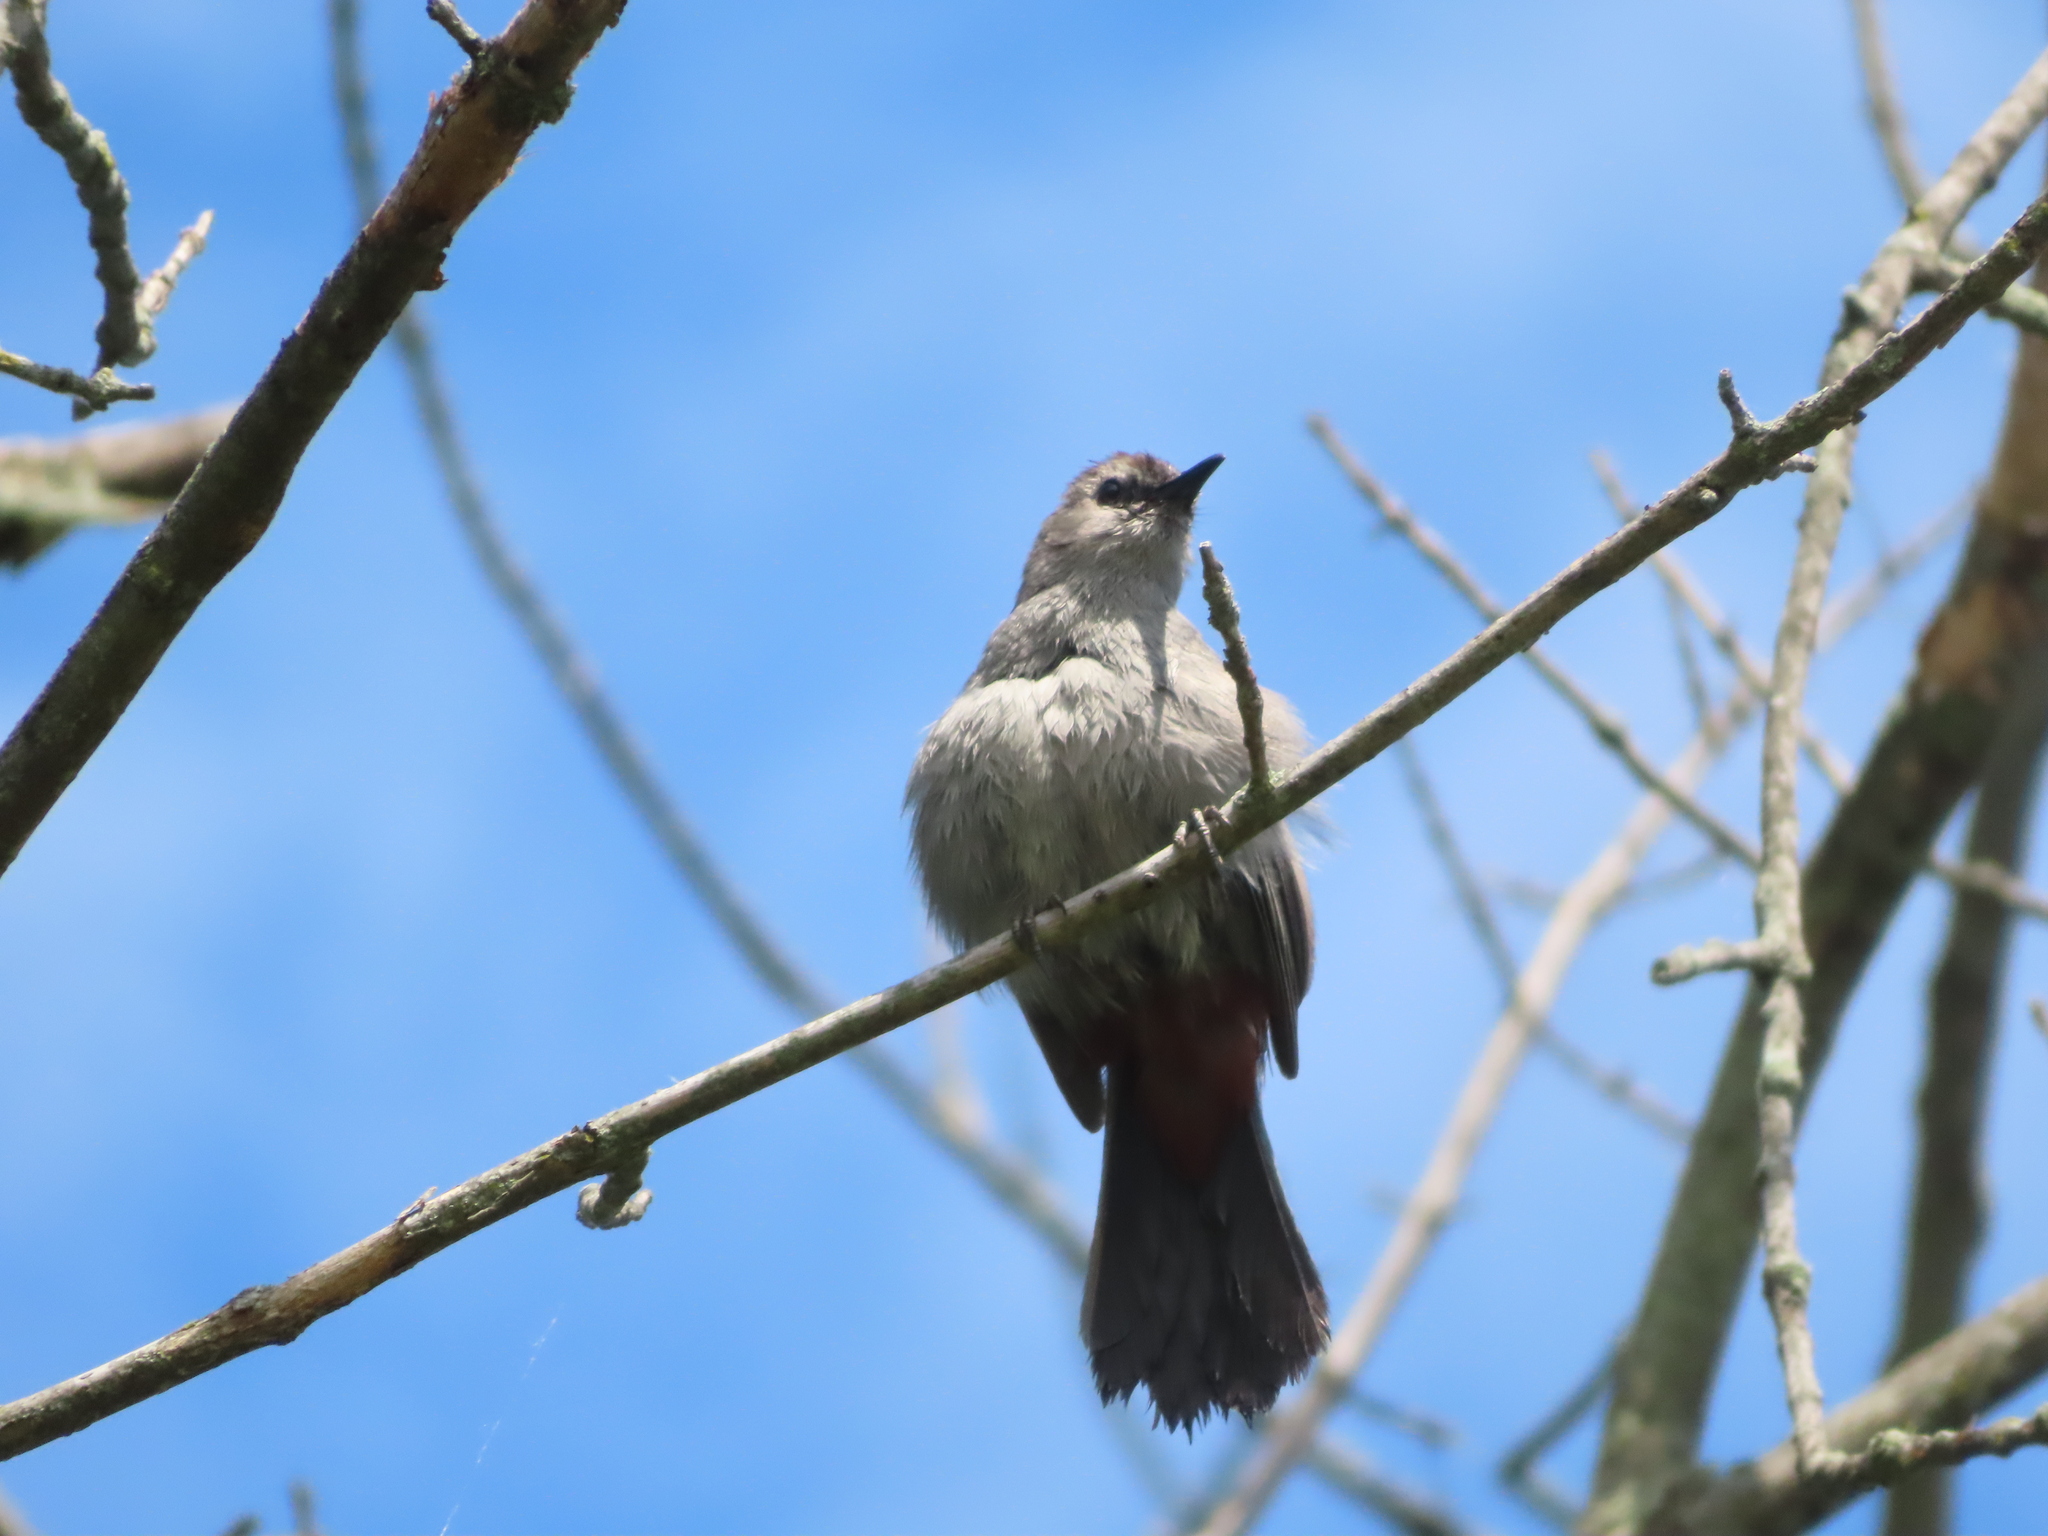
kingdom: Animalia
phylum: Chordata
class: Aves
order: Passeriformes
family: Mimidae
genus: Dumetella
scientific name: Dumetella carolinensis
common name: Gray catbird
